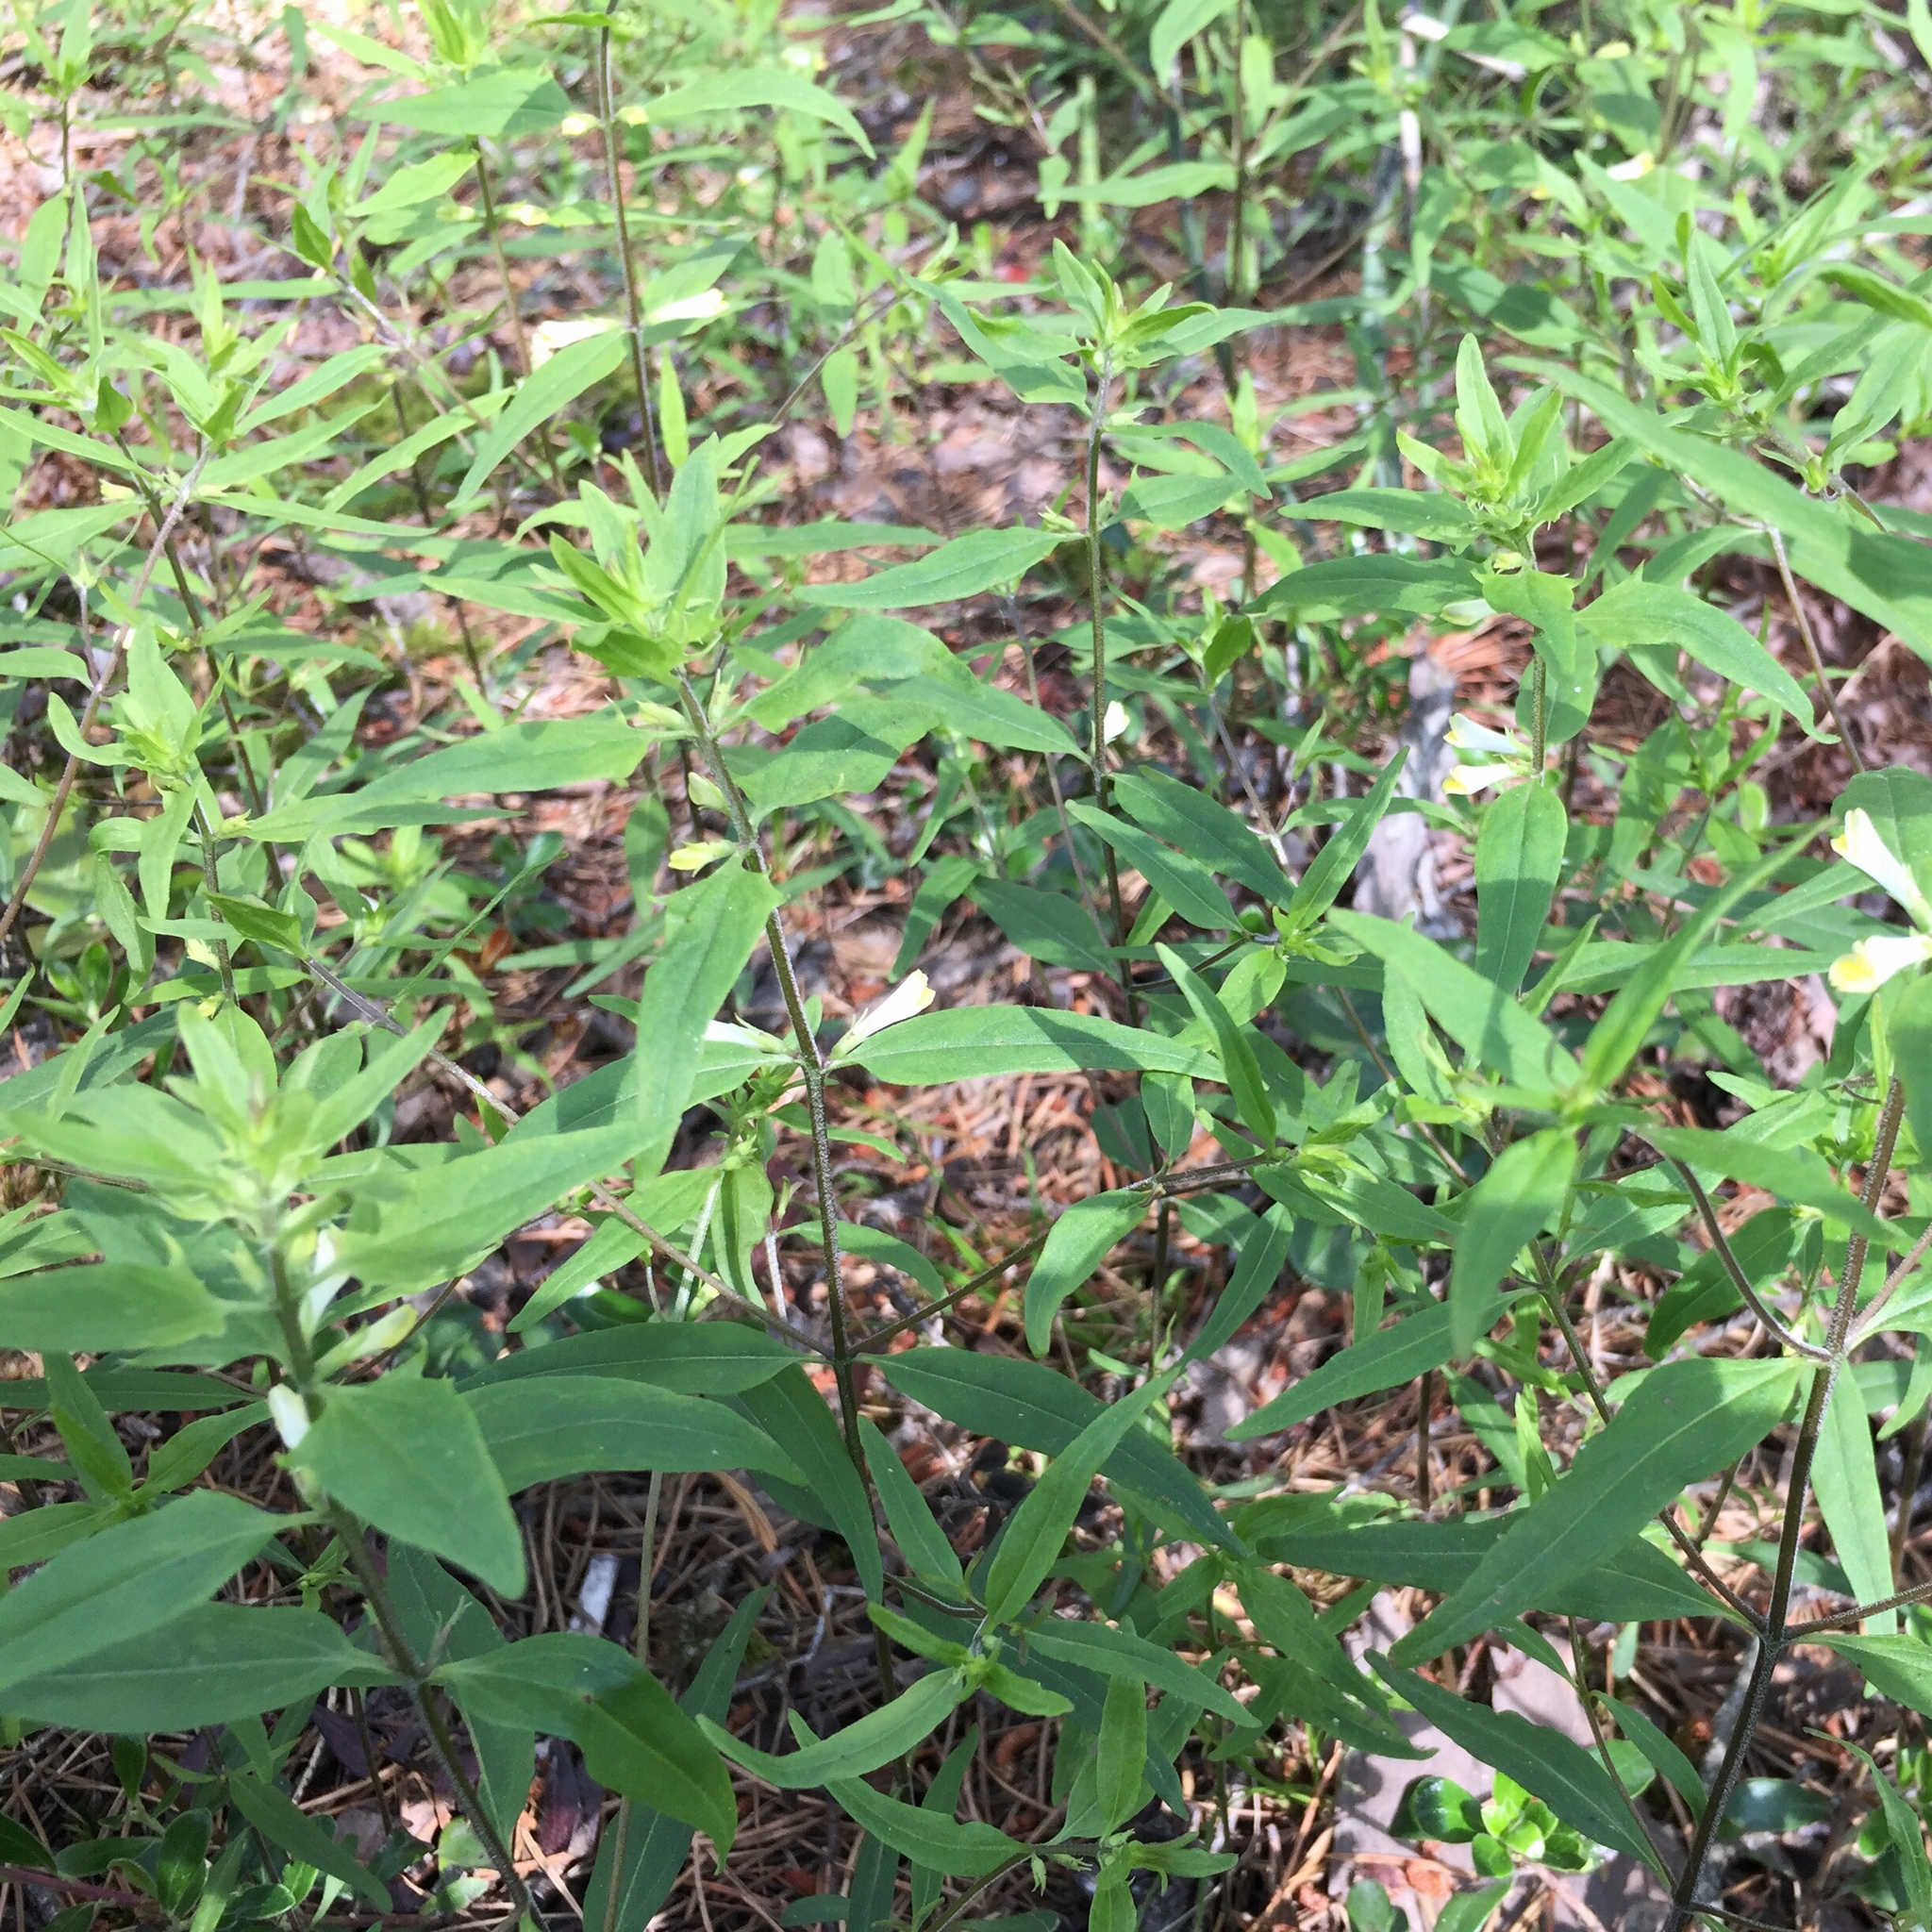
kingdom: Plantae
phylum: Tracheophyta
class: Magnoliopsida
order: Lamiales
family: Orobanchaceae
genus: Melampyrum
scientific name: Melampyrum lineare
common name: American cow-wheat
